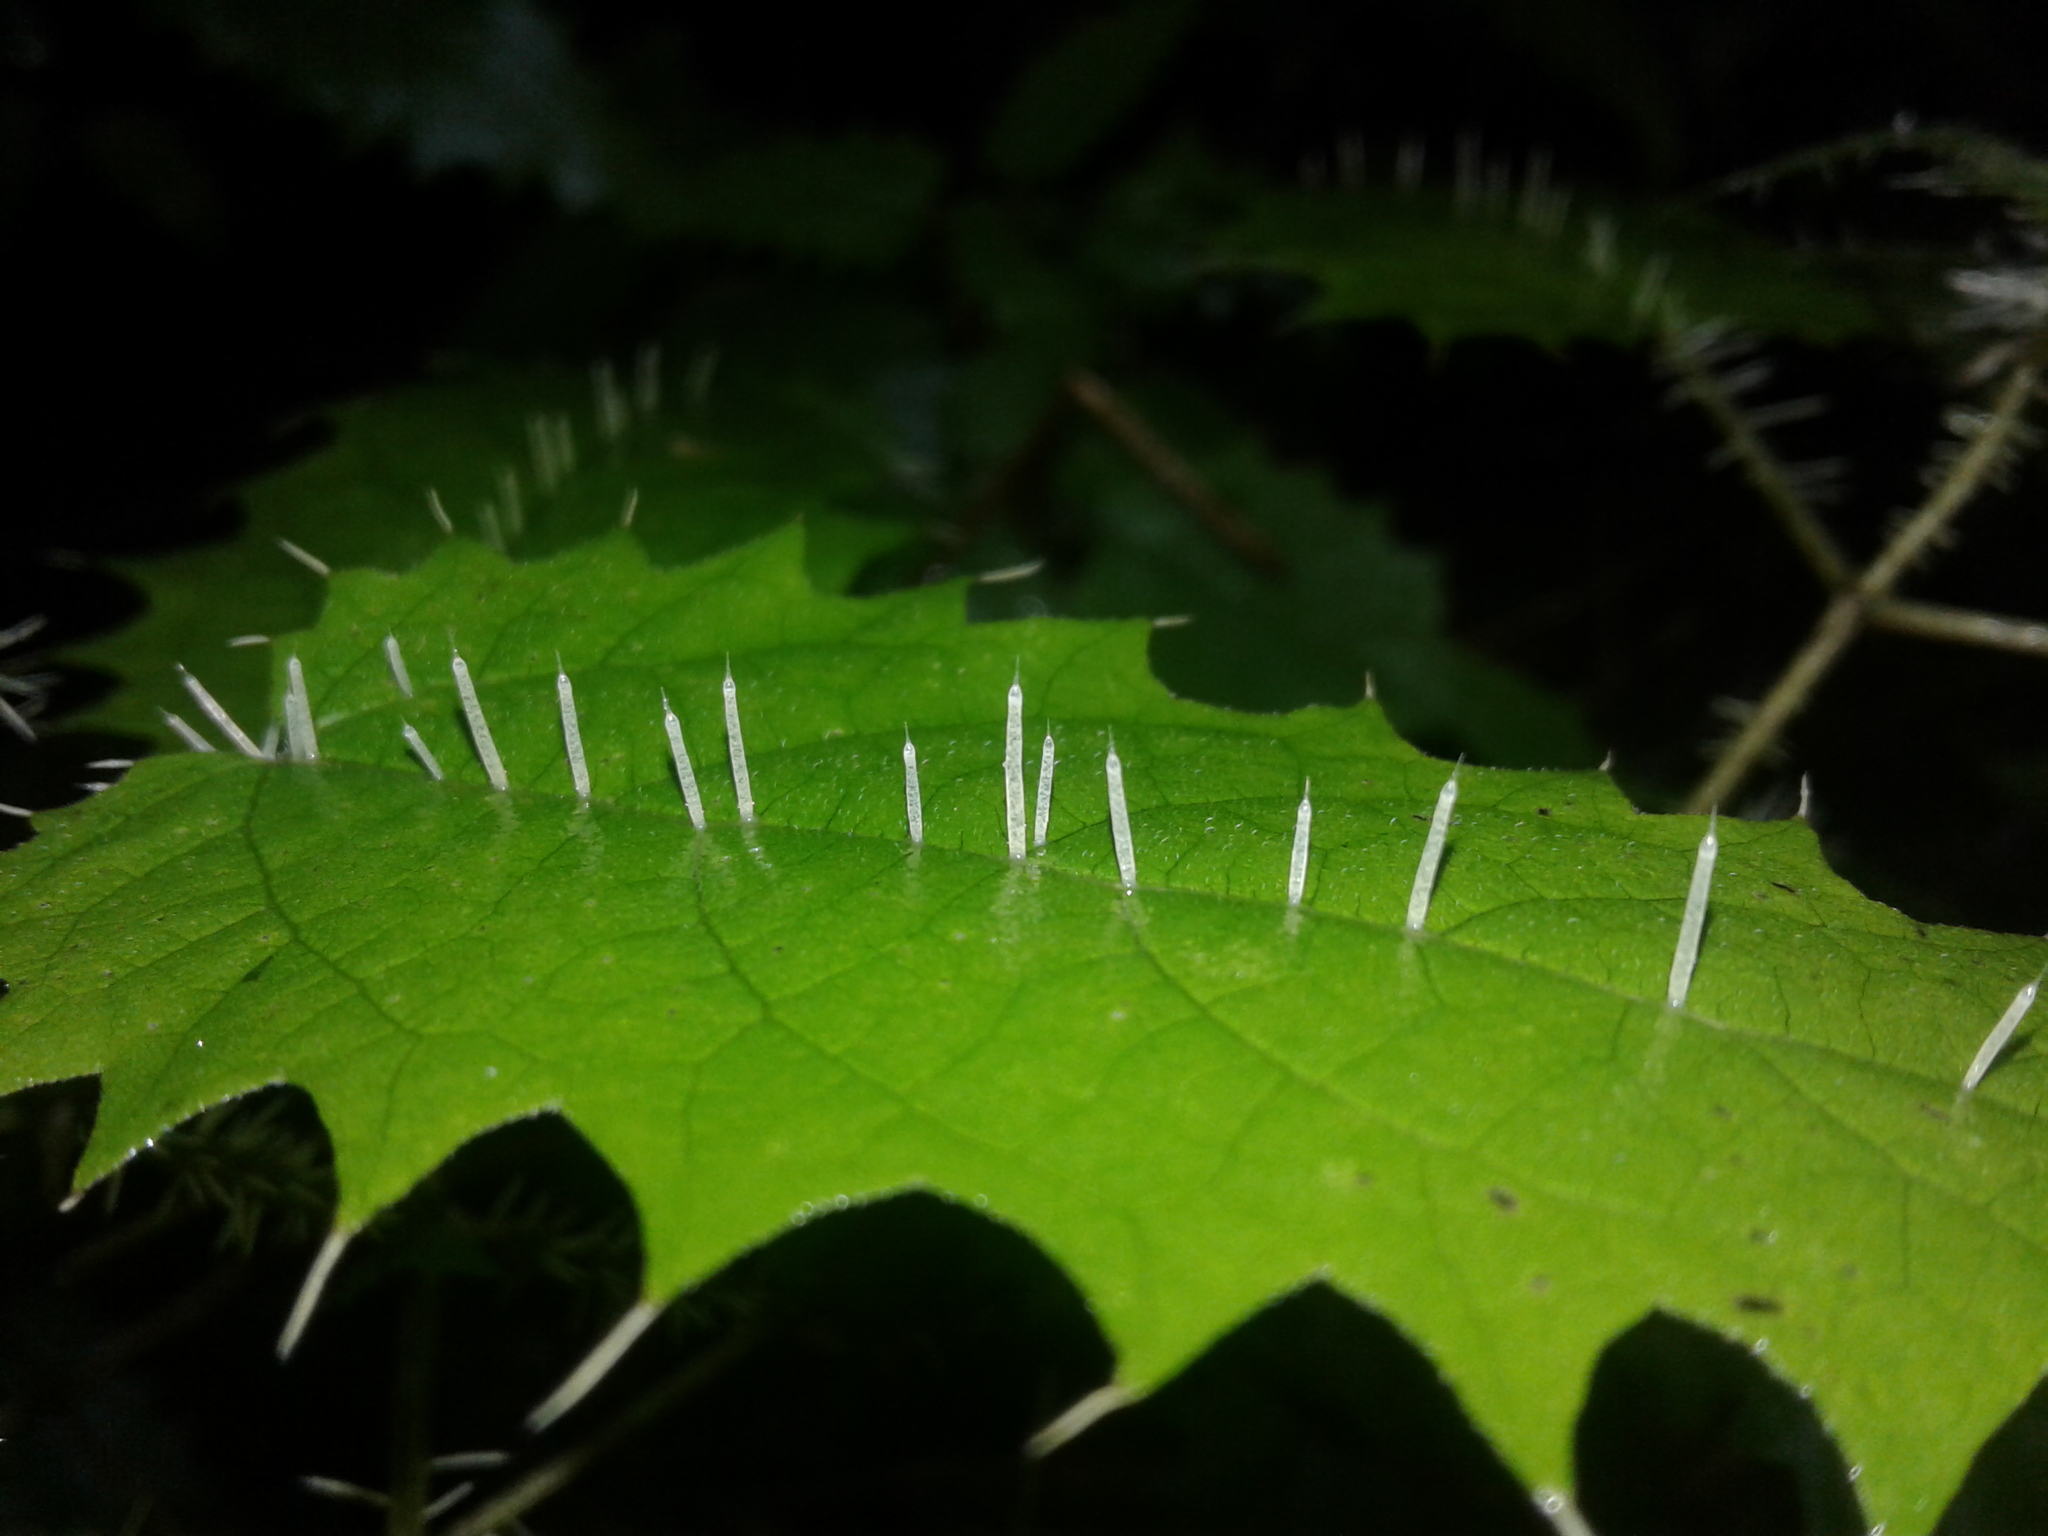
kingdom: Plantae
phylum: Tracheophyta
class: Magnoliopsida
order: Rosales
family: Urticaceae
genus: Urtica
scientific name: Urtica ferox
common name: Tree nettle
